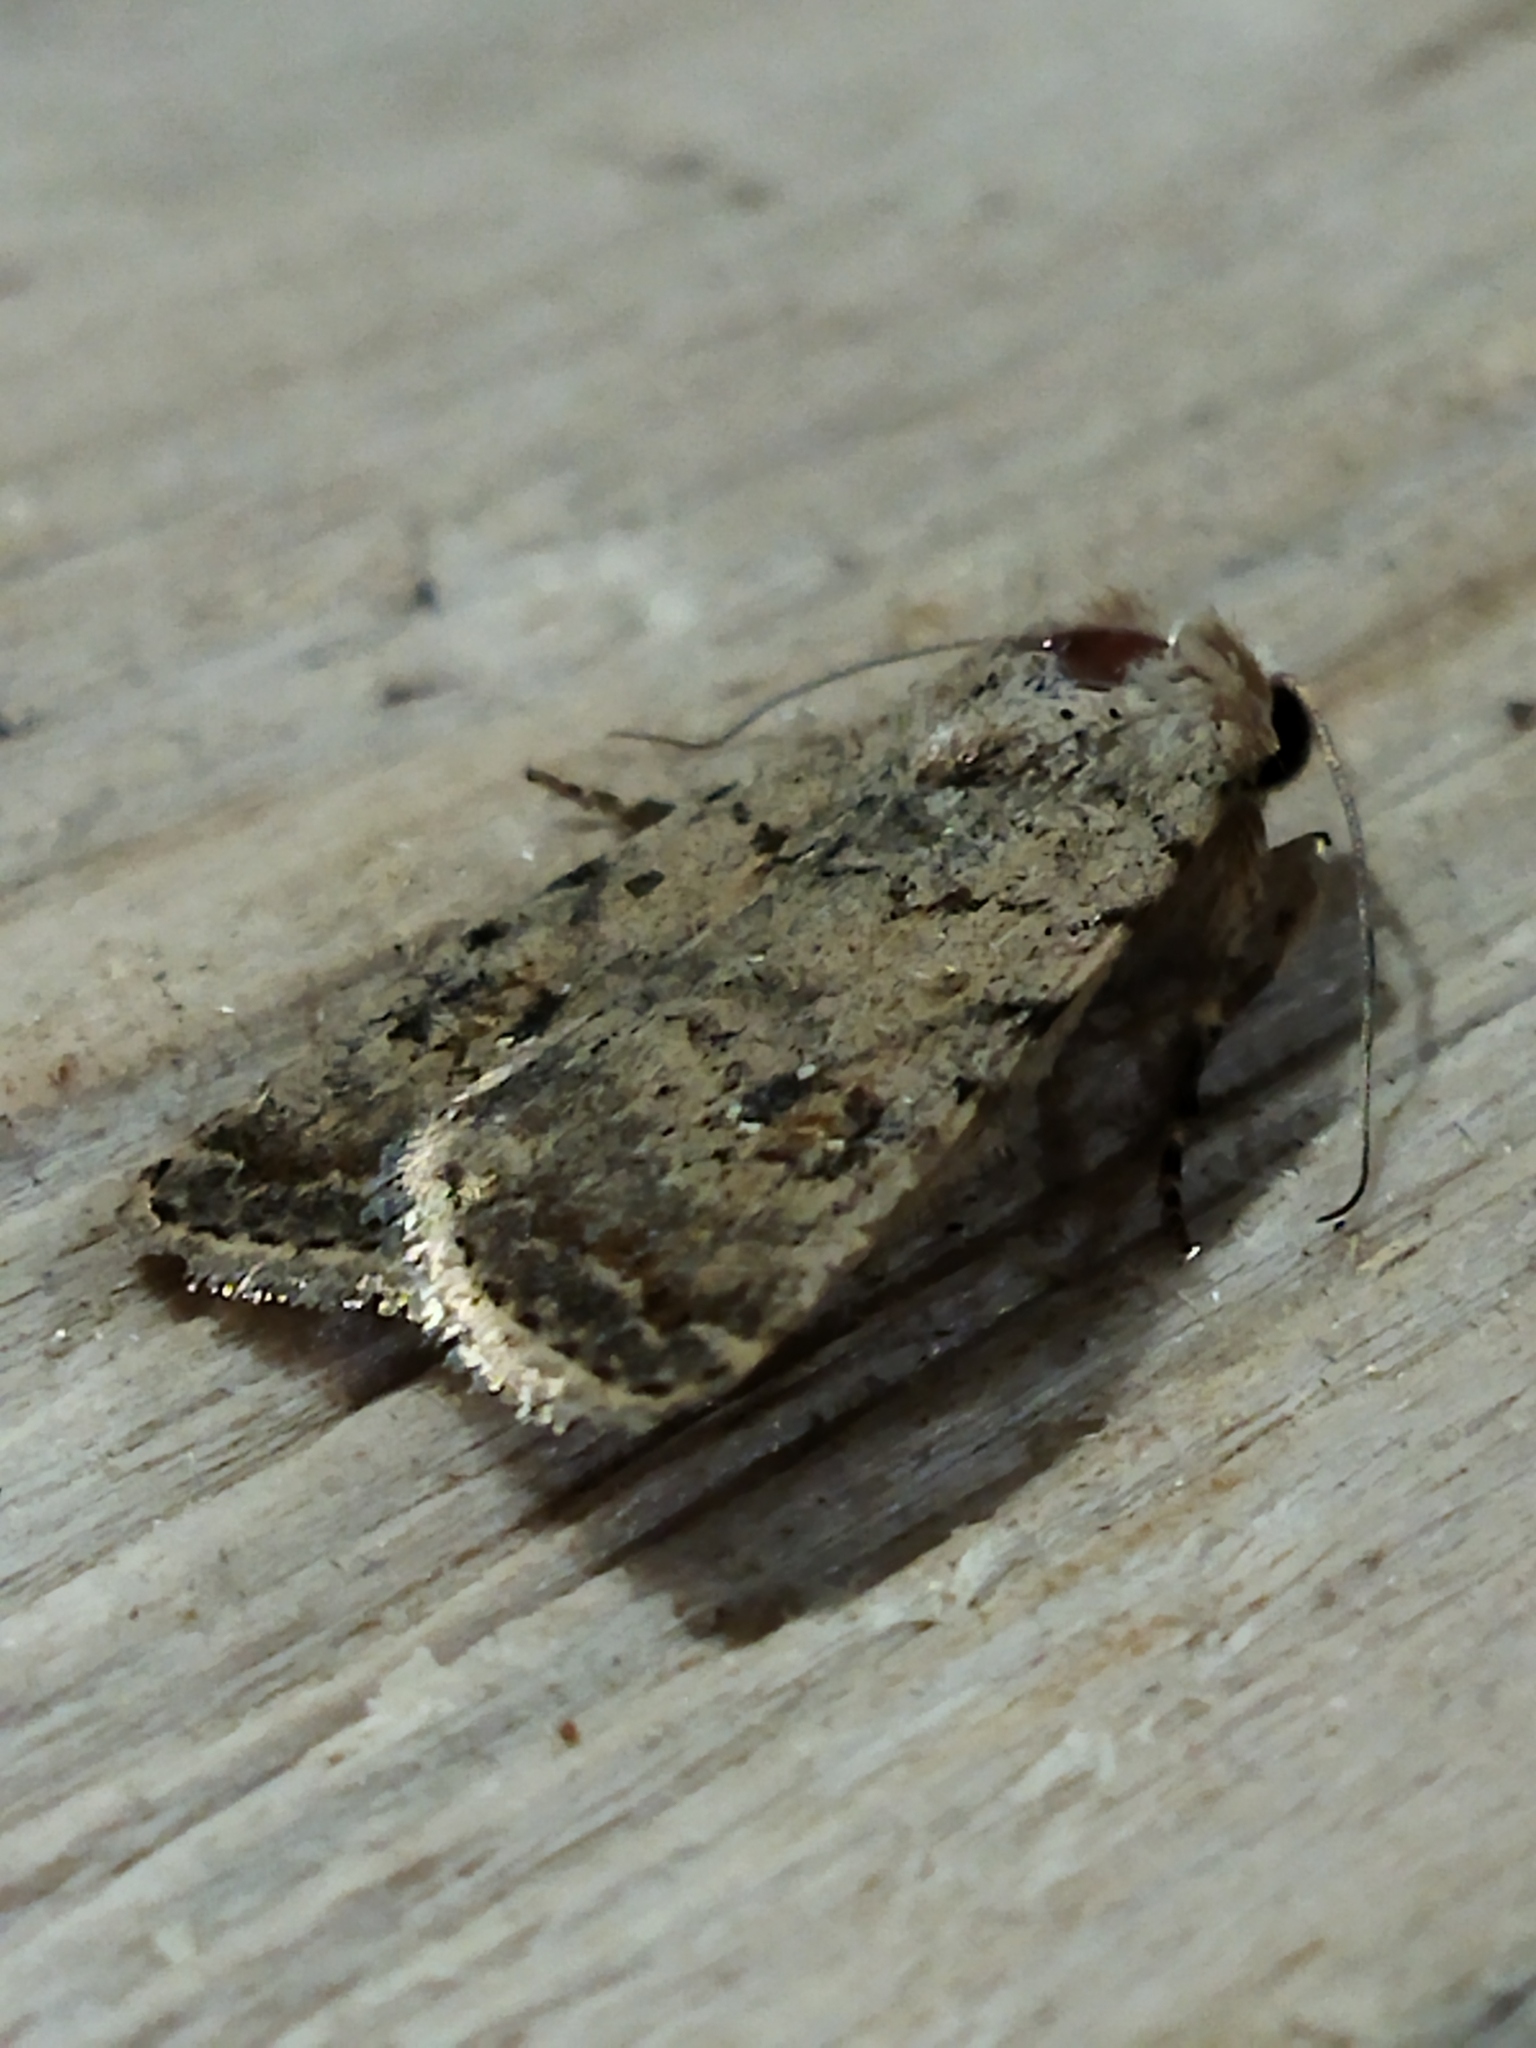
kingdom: Animalia
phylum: Arthropoda
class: Insecta
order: Lepidoptera
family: Noctuidae
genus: Caradrina
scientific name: Caradrina clavipalpis
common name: Pale mottled willow
